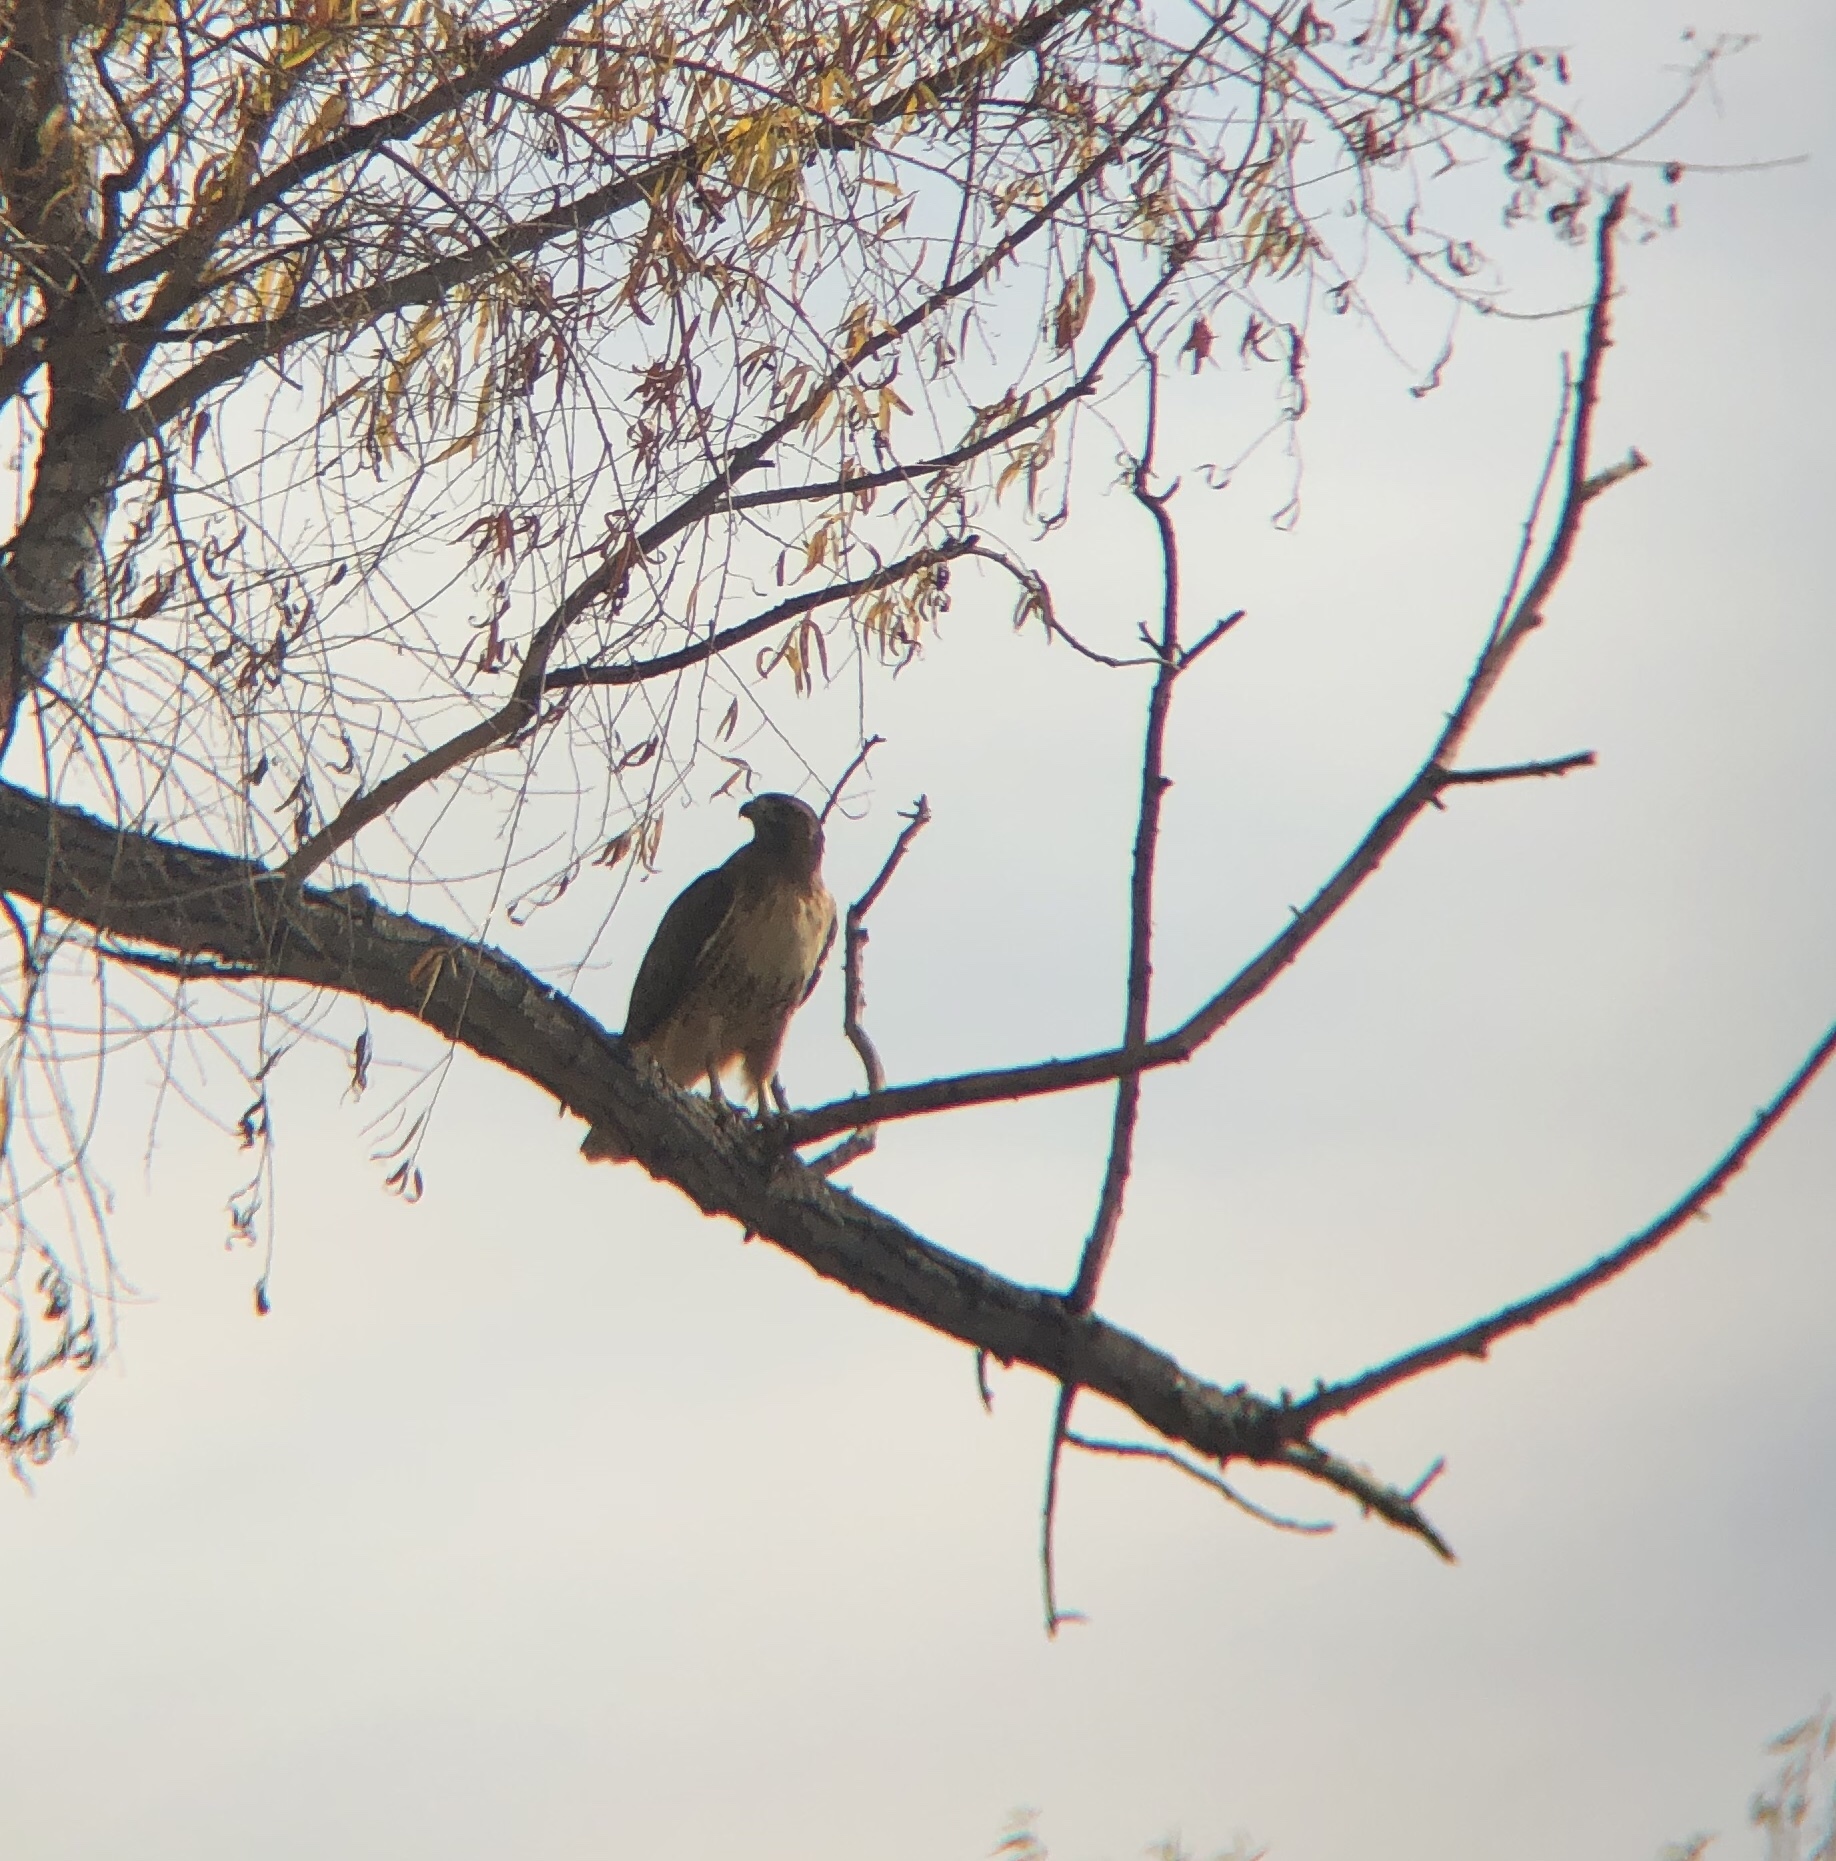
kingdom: Animalia
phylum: Chordata
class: Aves
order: Accipitriformes
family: Accipitridae
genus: Buteo
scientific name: Buteo jamaicensis
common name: Red-tailed hawk
